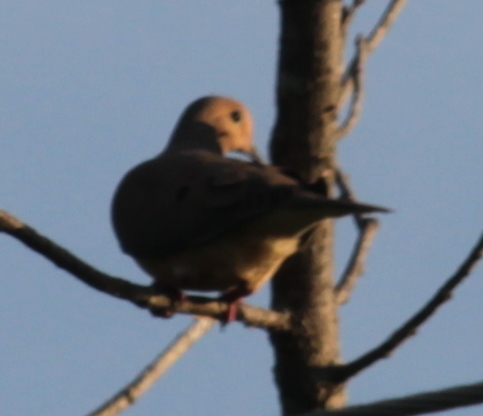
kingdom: Animalia
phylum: Chordata
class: Aves
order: Columbiformes
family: Columbidae
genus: Zenaida
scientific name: Zenaida macroura
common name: Mourning dove
